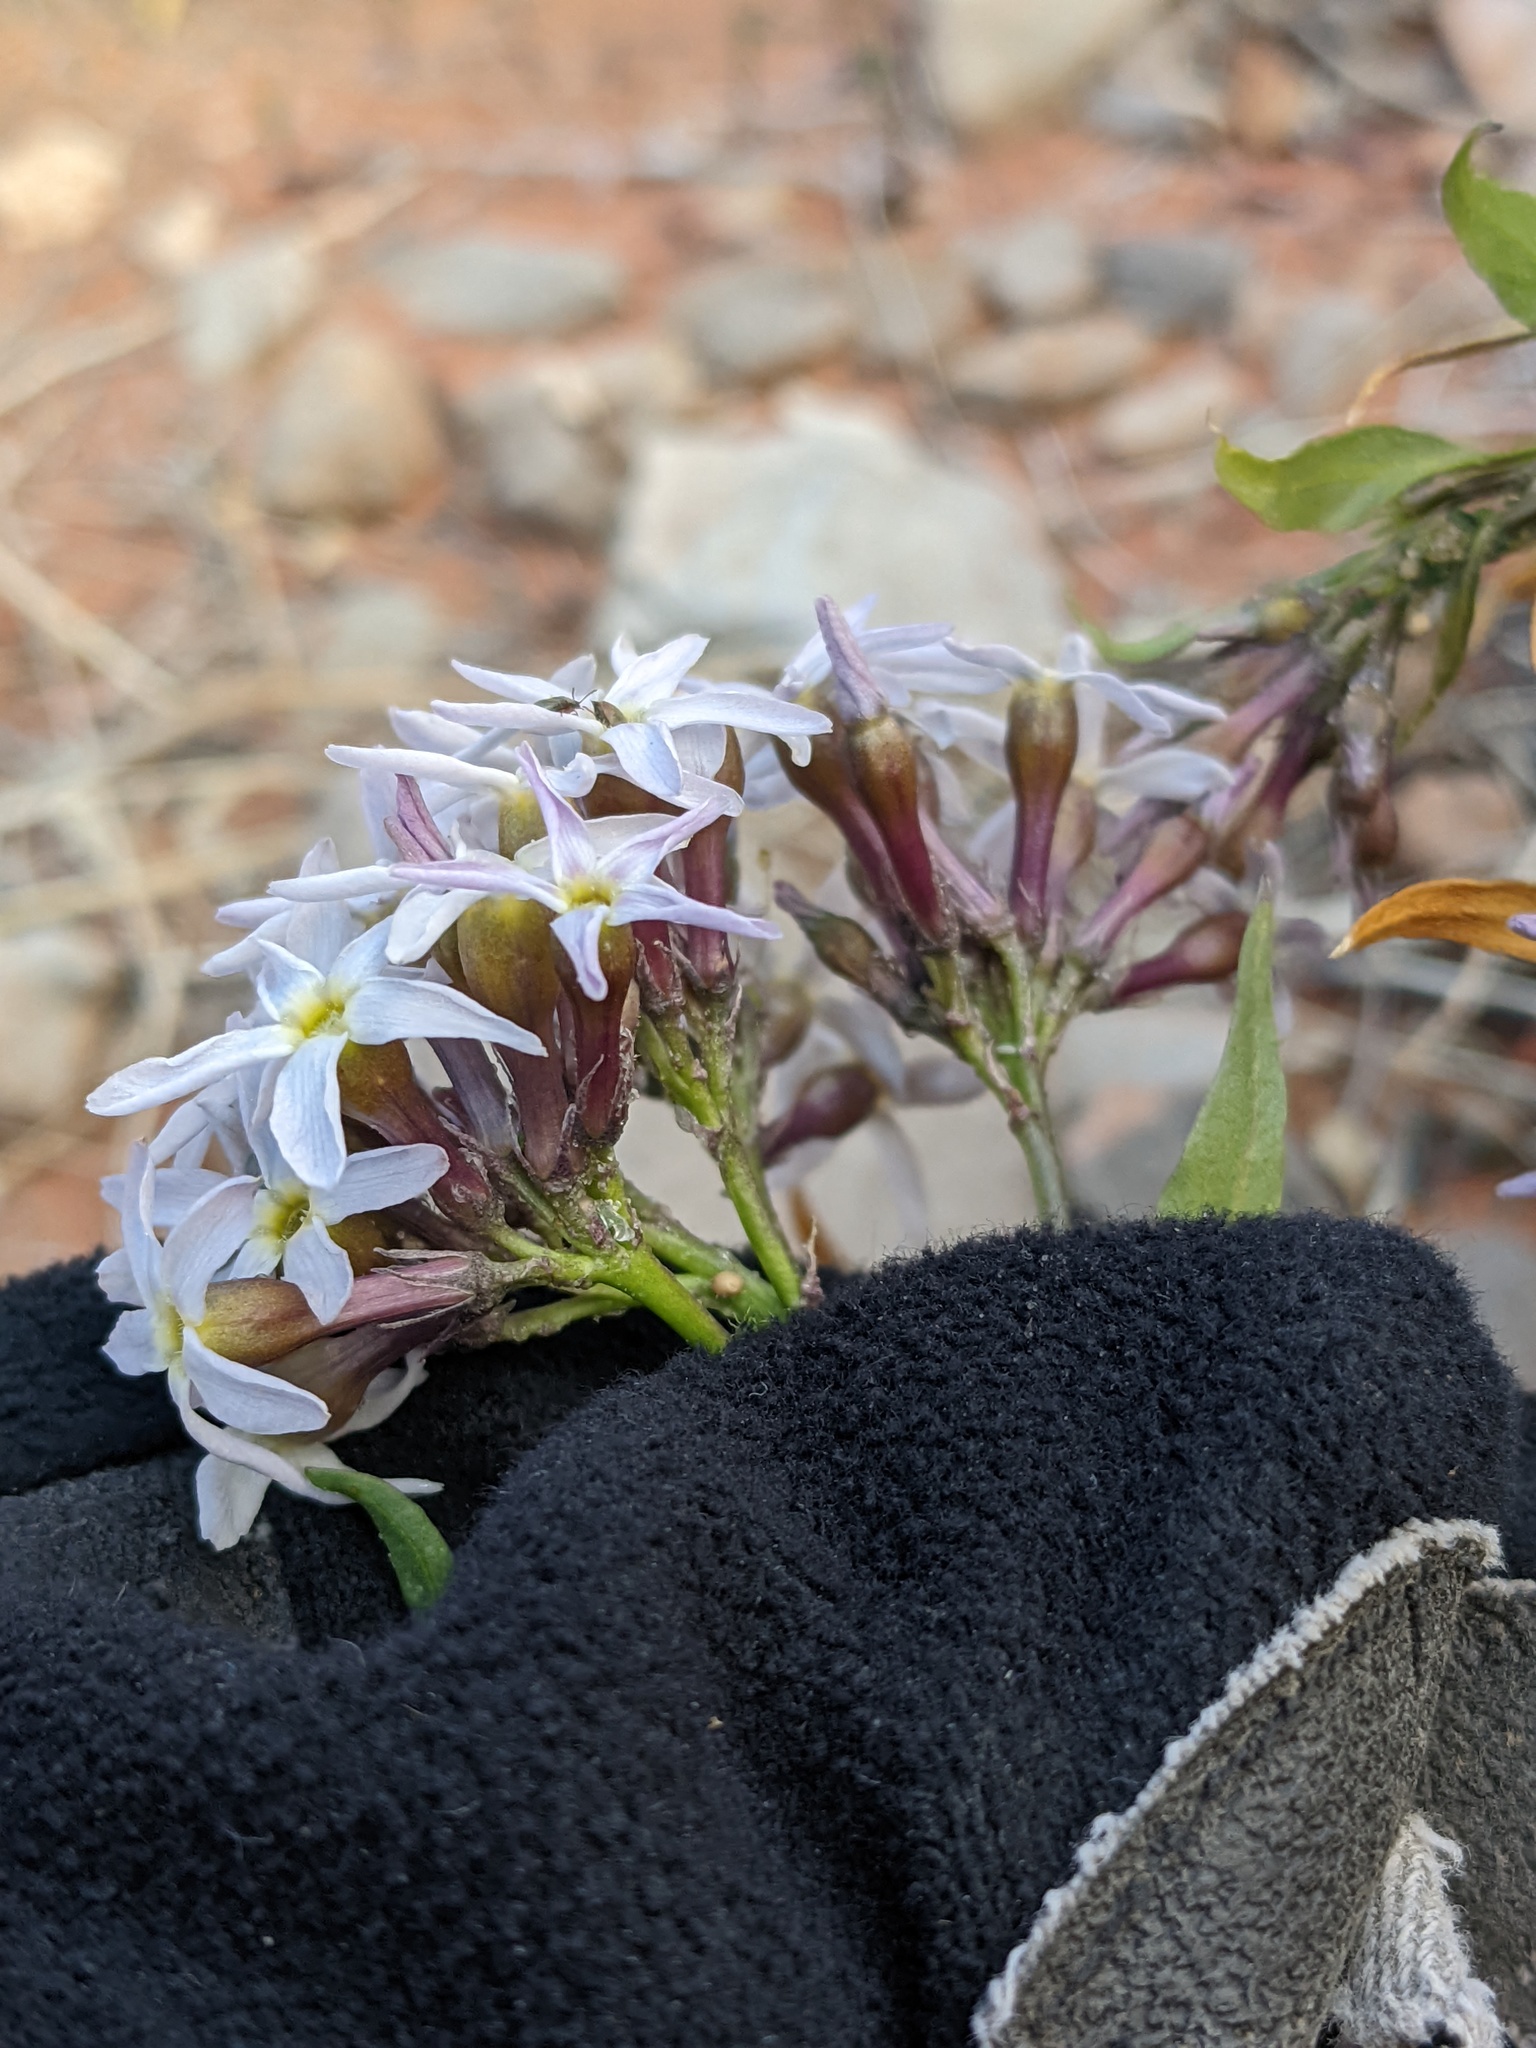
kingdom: Plantae
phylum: Tracheophyta
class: Magnoliopsida
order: Gentianales
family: Apocynaceae
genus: Amsonia
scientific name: Amsonia tomentosa
